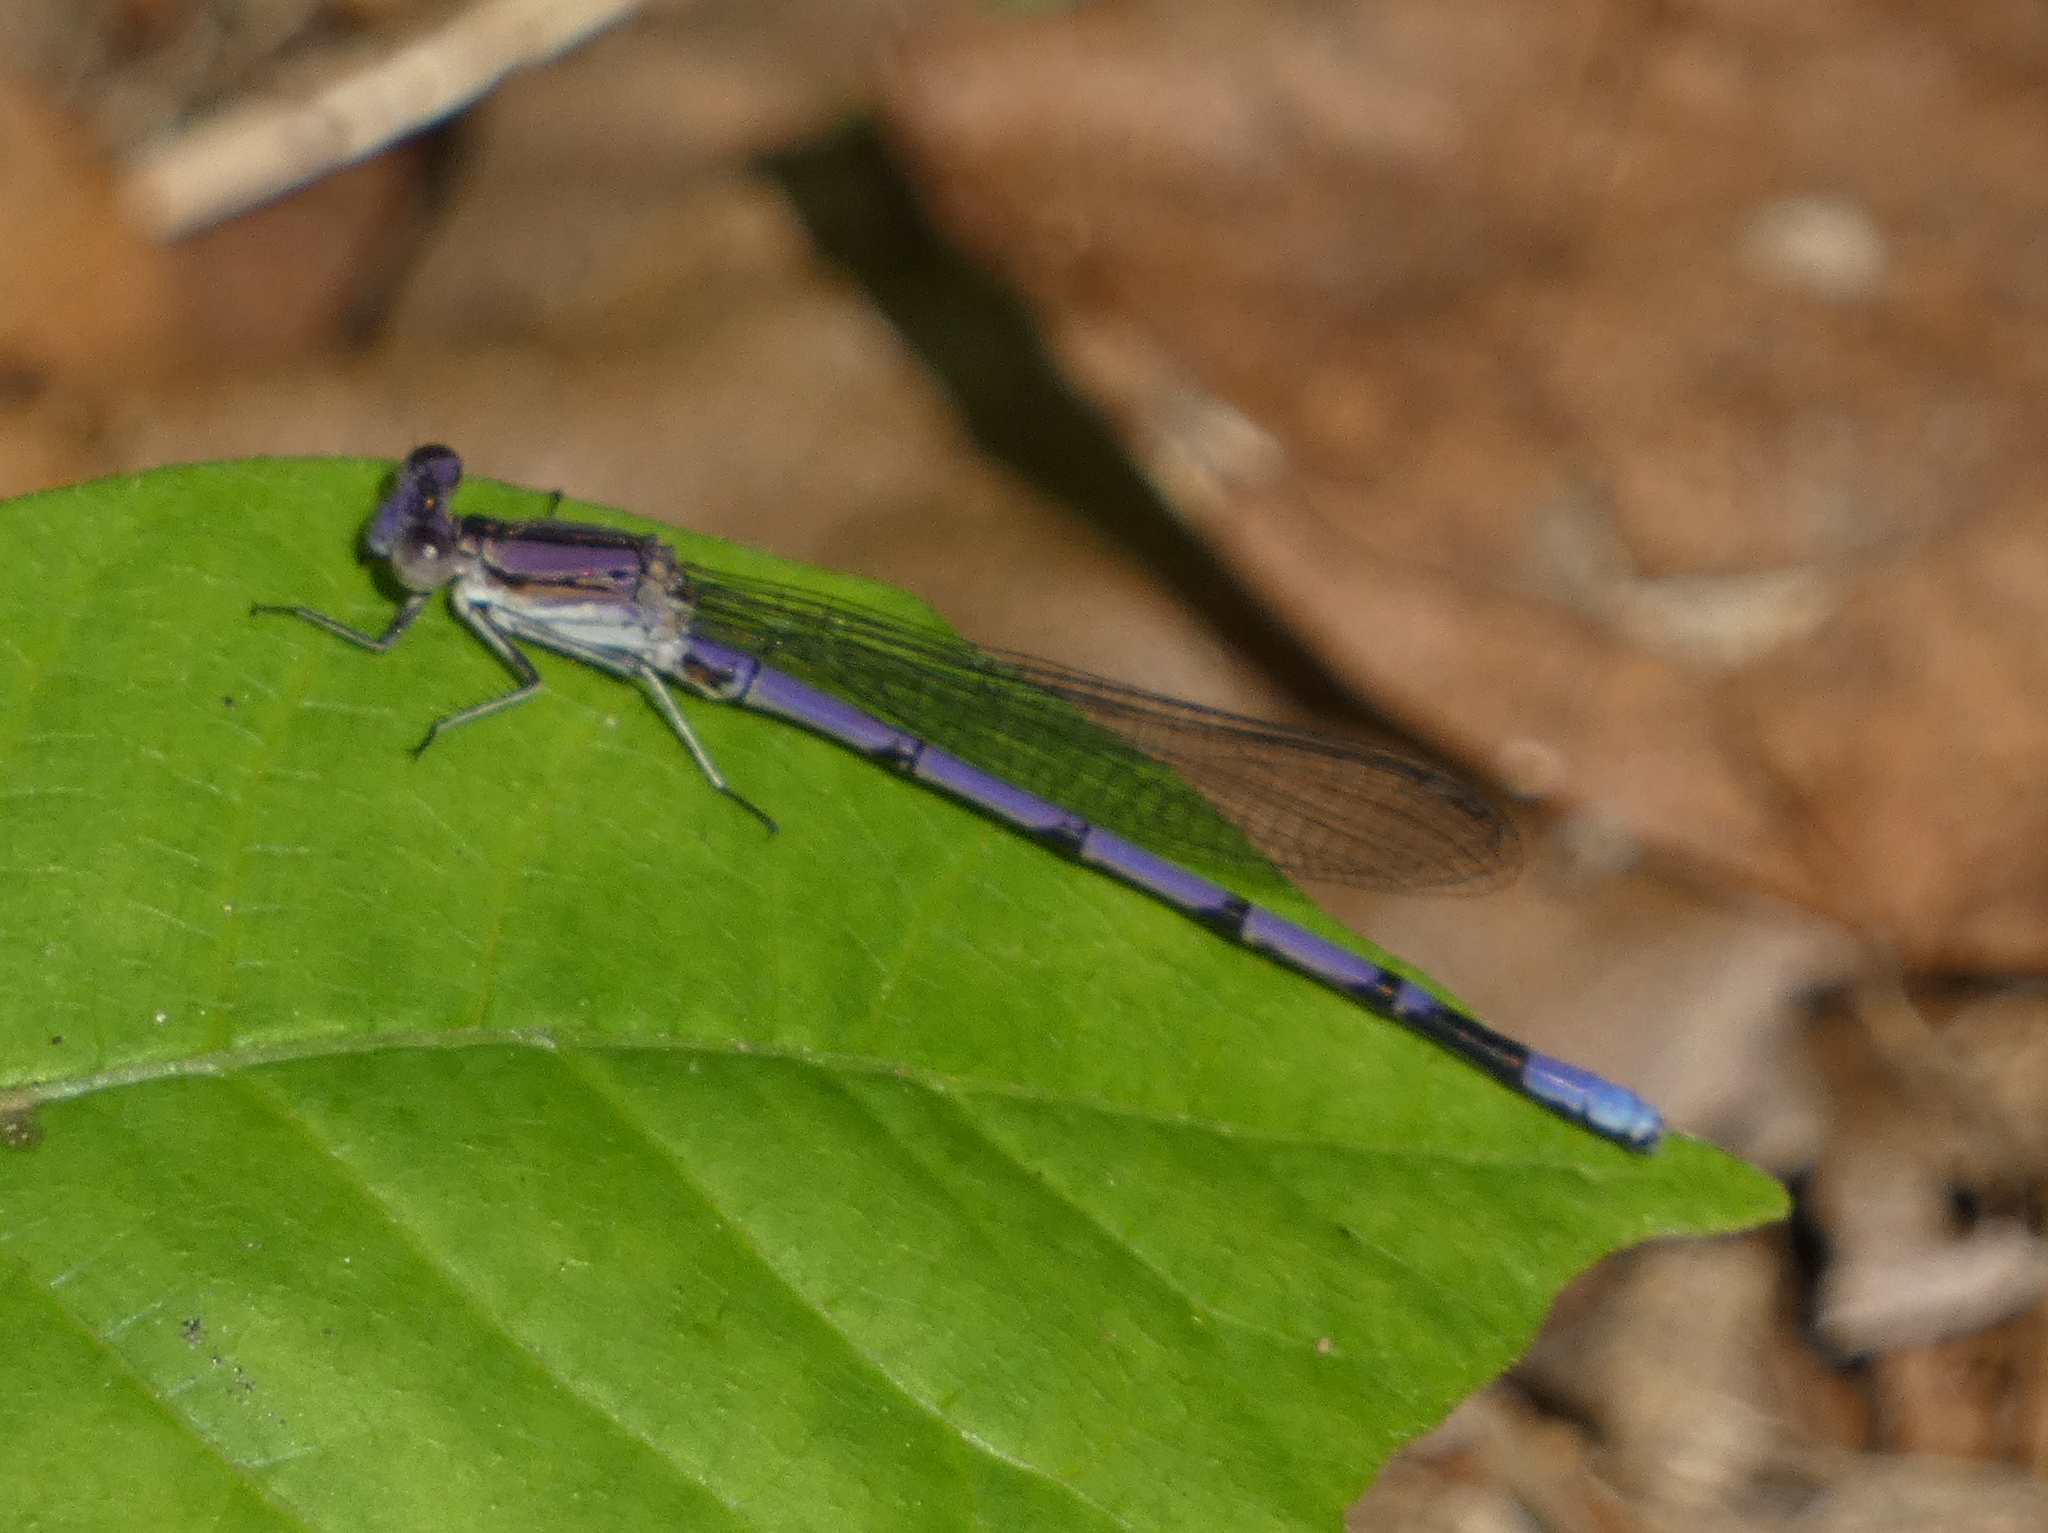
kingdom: Animalia
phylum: Arthropoda
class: Insecta
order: Odonata
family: Coenagrionidae
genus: Argia
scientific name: Argia fumipennis
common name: Variable dancer
